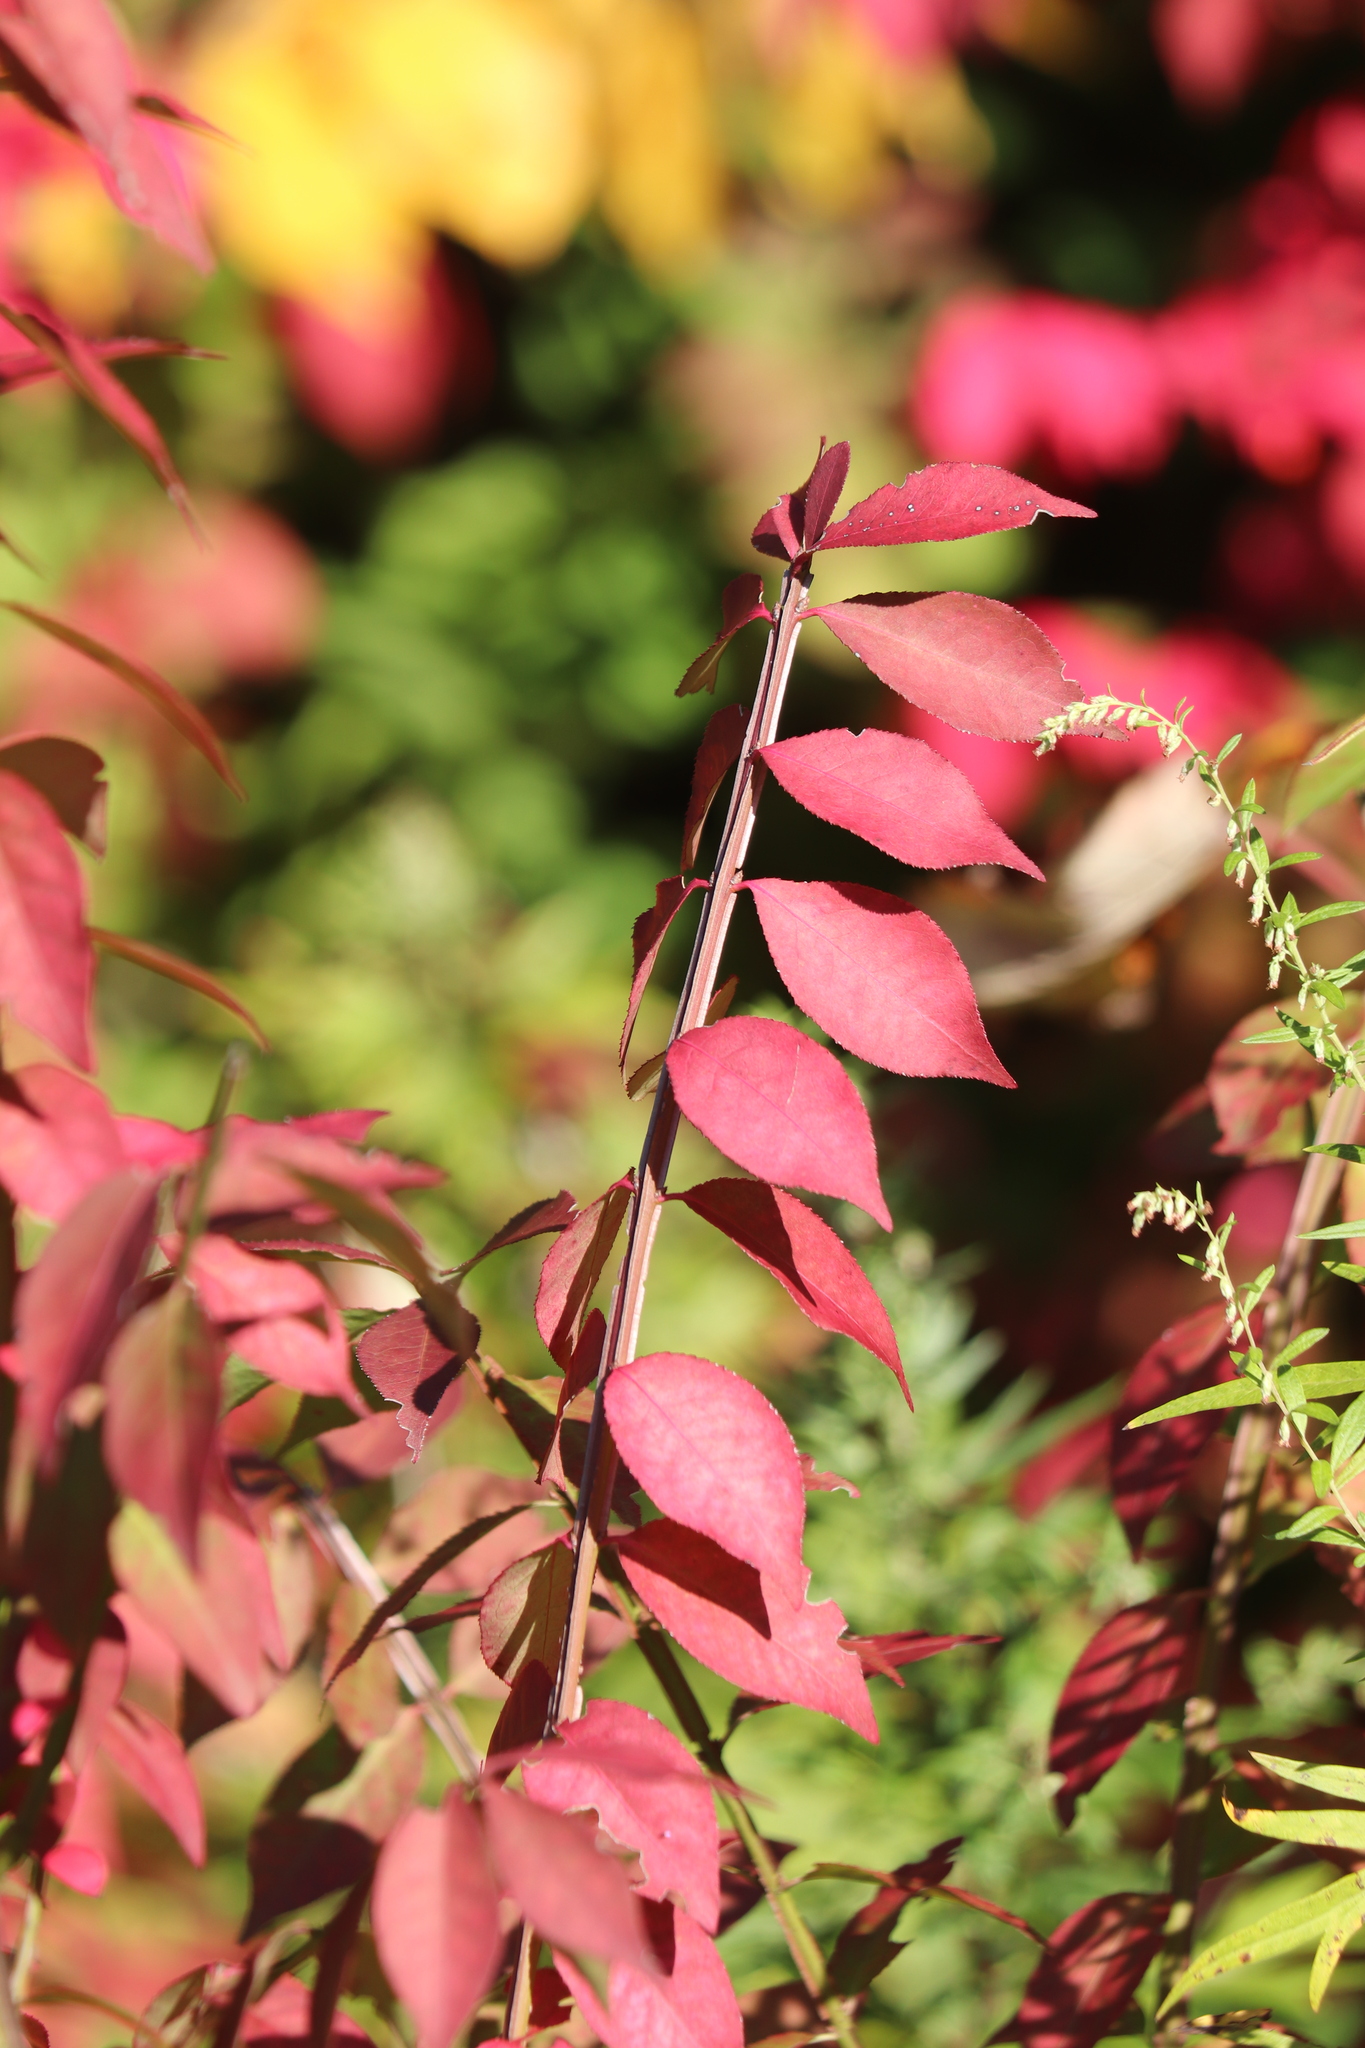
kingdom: Plantae
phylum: Tracheophyta
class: Magnoliopsida
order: Celastrales
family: Celastraceae
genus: Euonymus
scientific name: Euonymus alatus
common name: Winged euonymus
